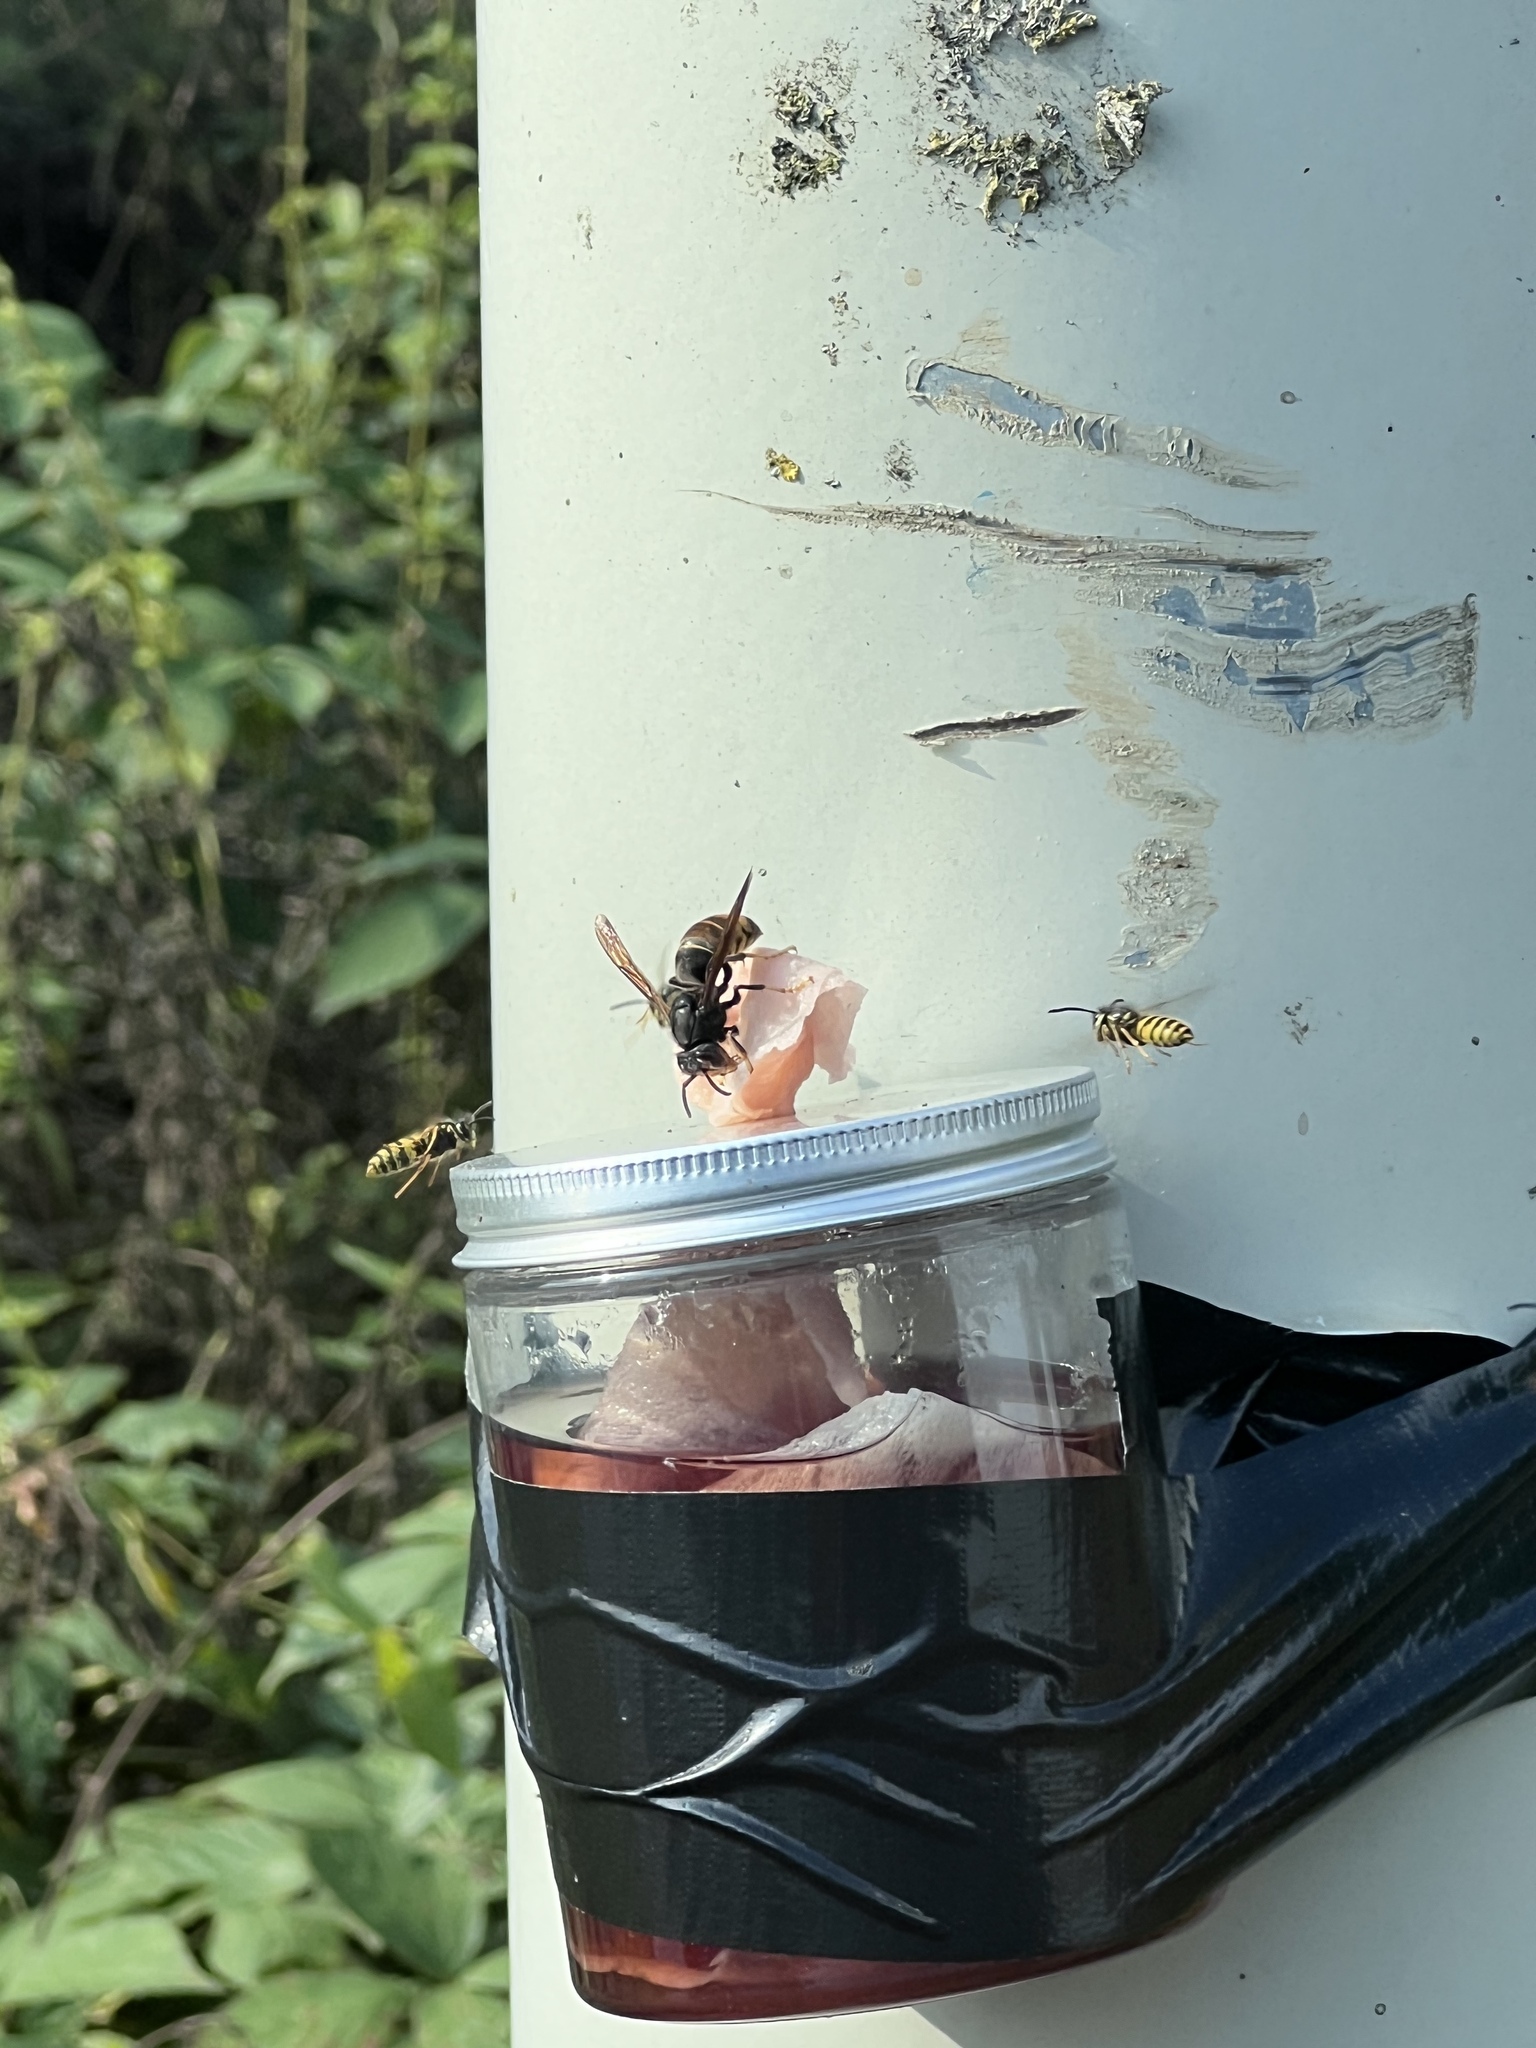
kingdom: Animalia
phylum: Arthropoda
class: Insecta
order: Hymenoptera
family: Vespidae
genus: Vespa
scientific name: Vespa velutina
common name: Asian hornet
